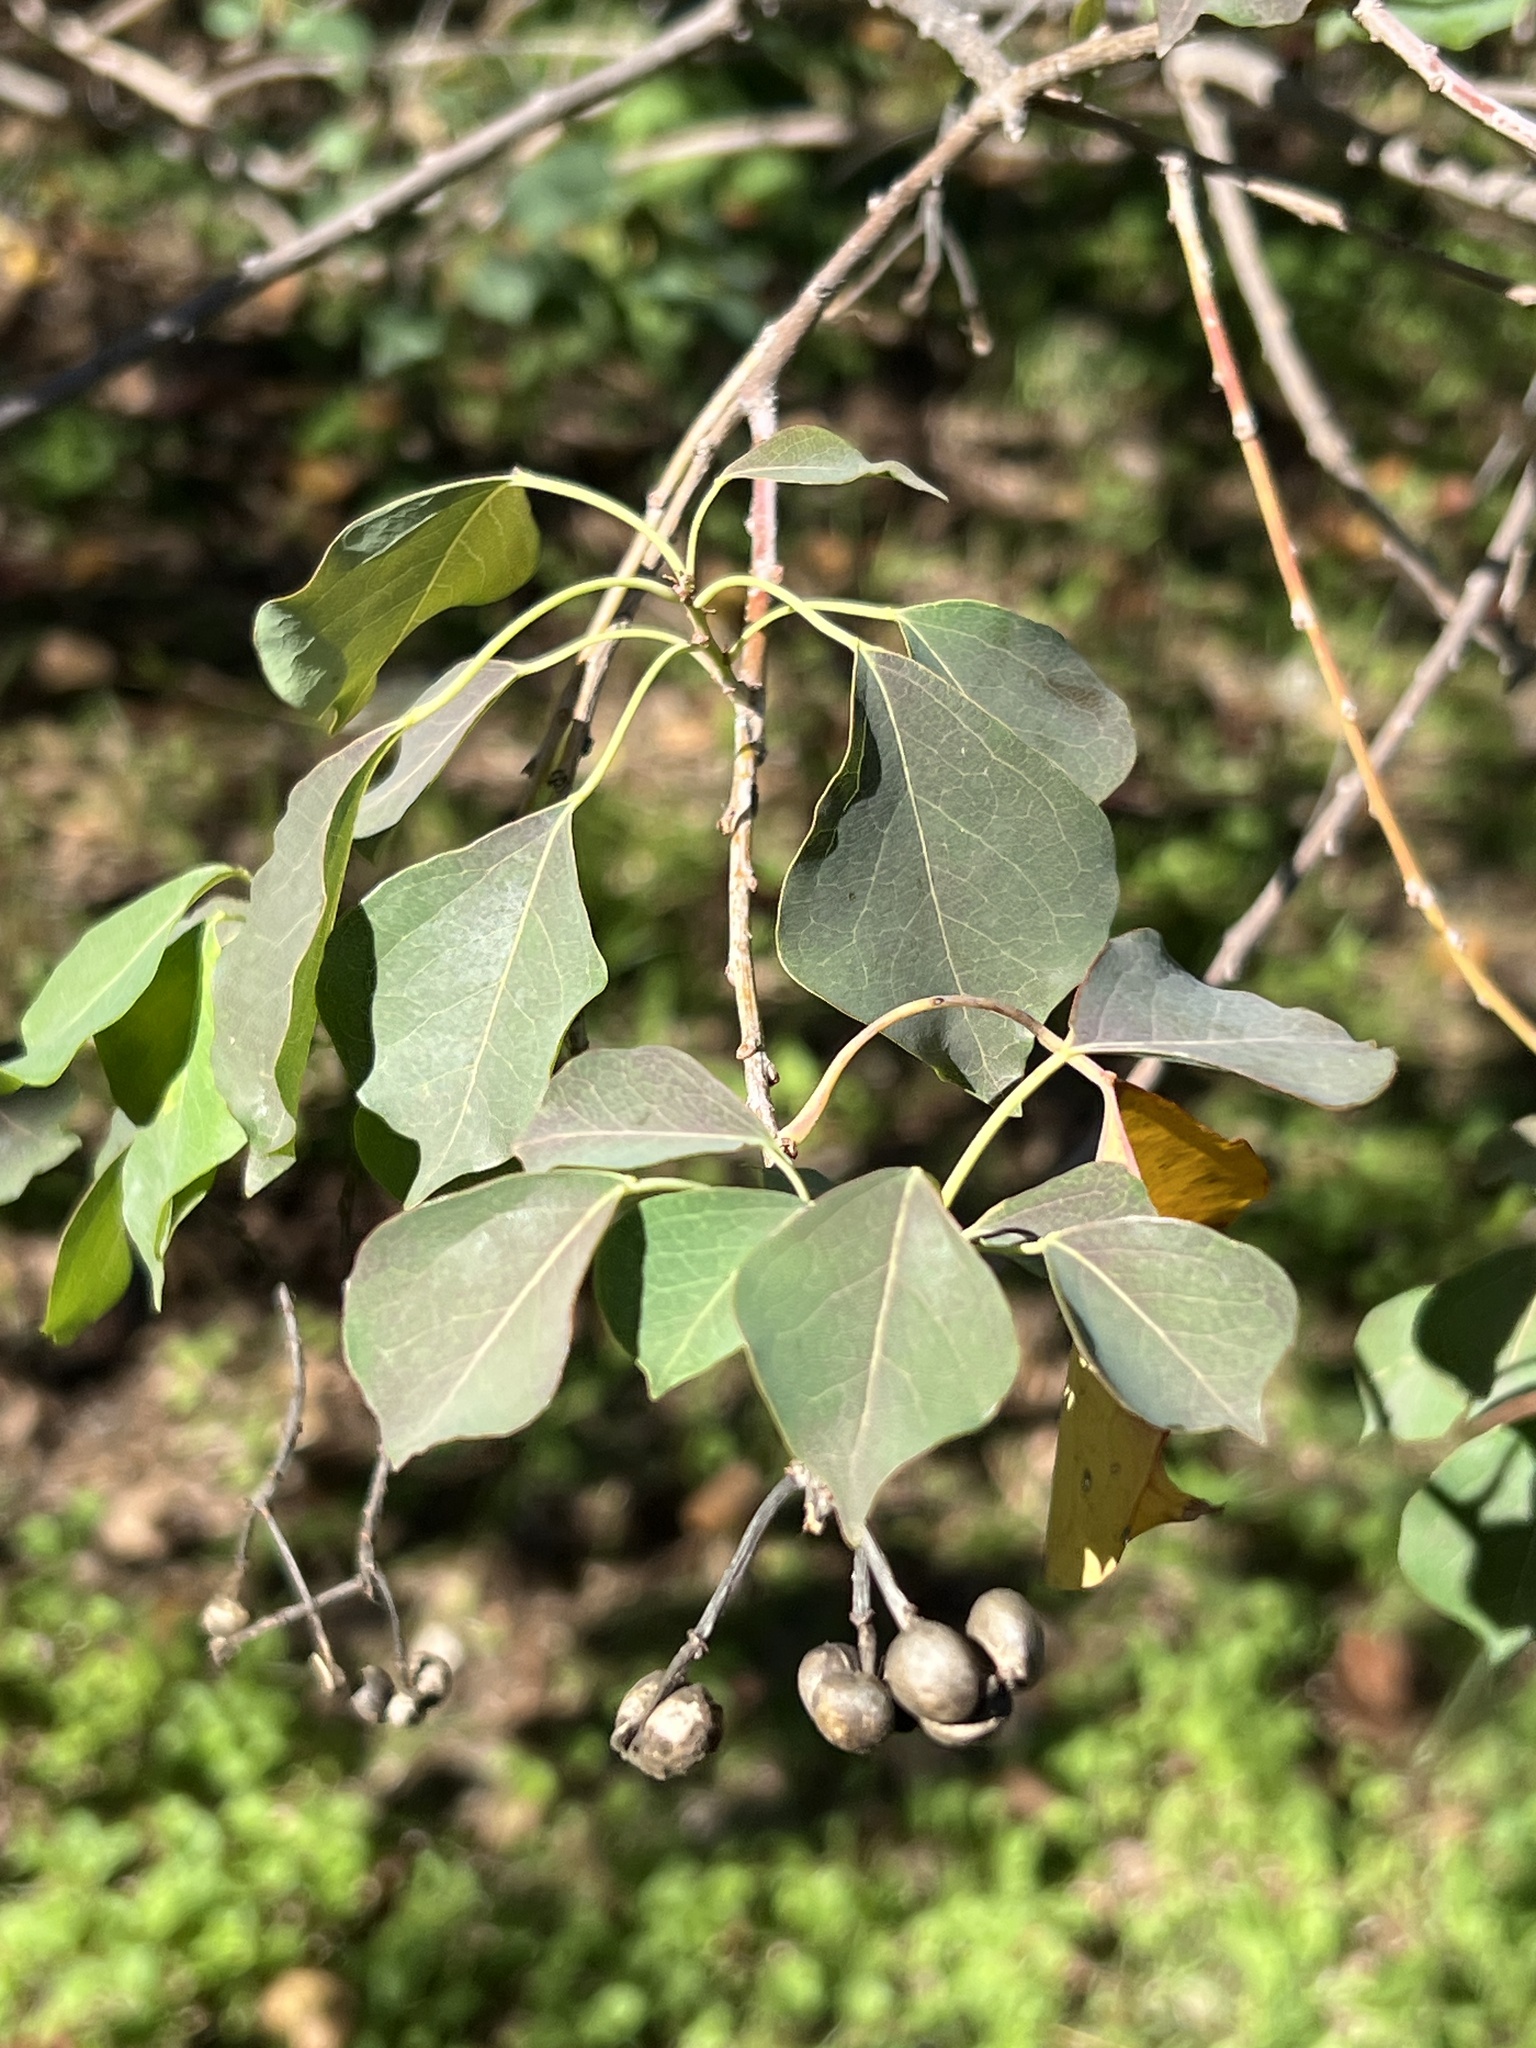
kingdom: Plantae
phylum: Tracheophyta
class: Magnoliopsida
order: Malpighiales
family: Euphorbiaceae
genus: Triadica
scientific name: Triadica sebifera
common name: Chinese tallow
